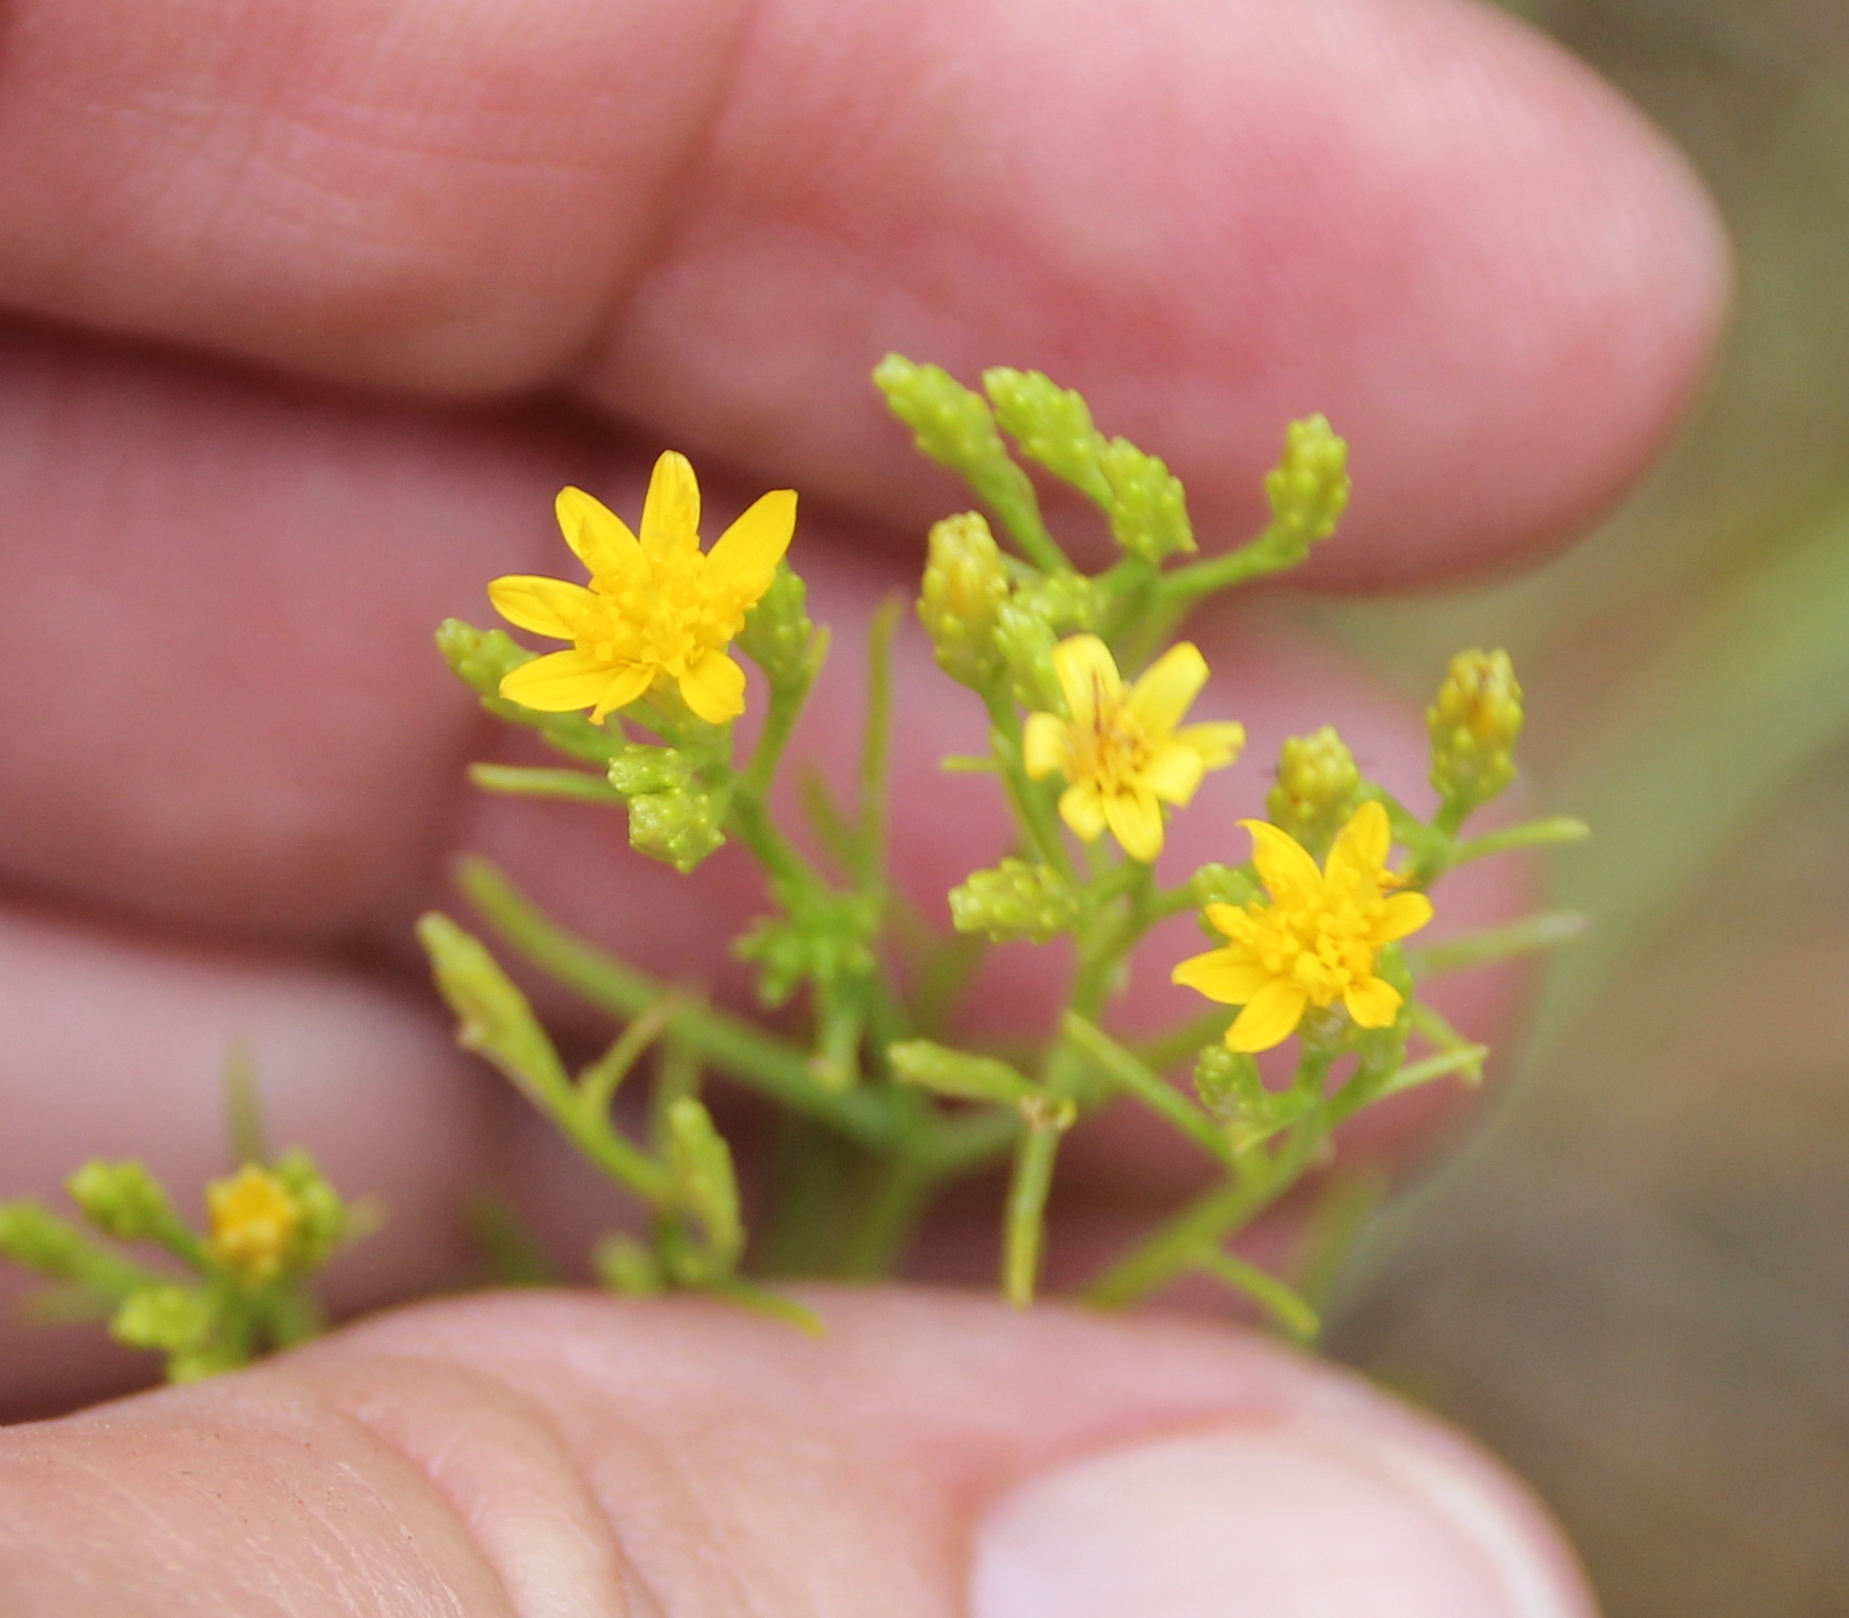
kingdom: Plantae
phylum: Tracheophyta
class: Magnoliopsida
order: Asterales
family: Asteraceae
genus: Gutierrezia
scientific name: Gutierrezia sarothrae
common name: Broom snakeweed
